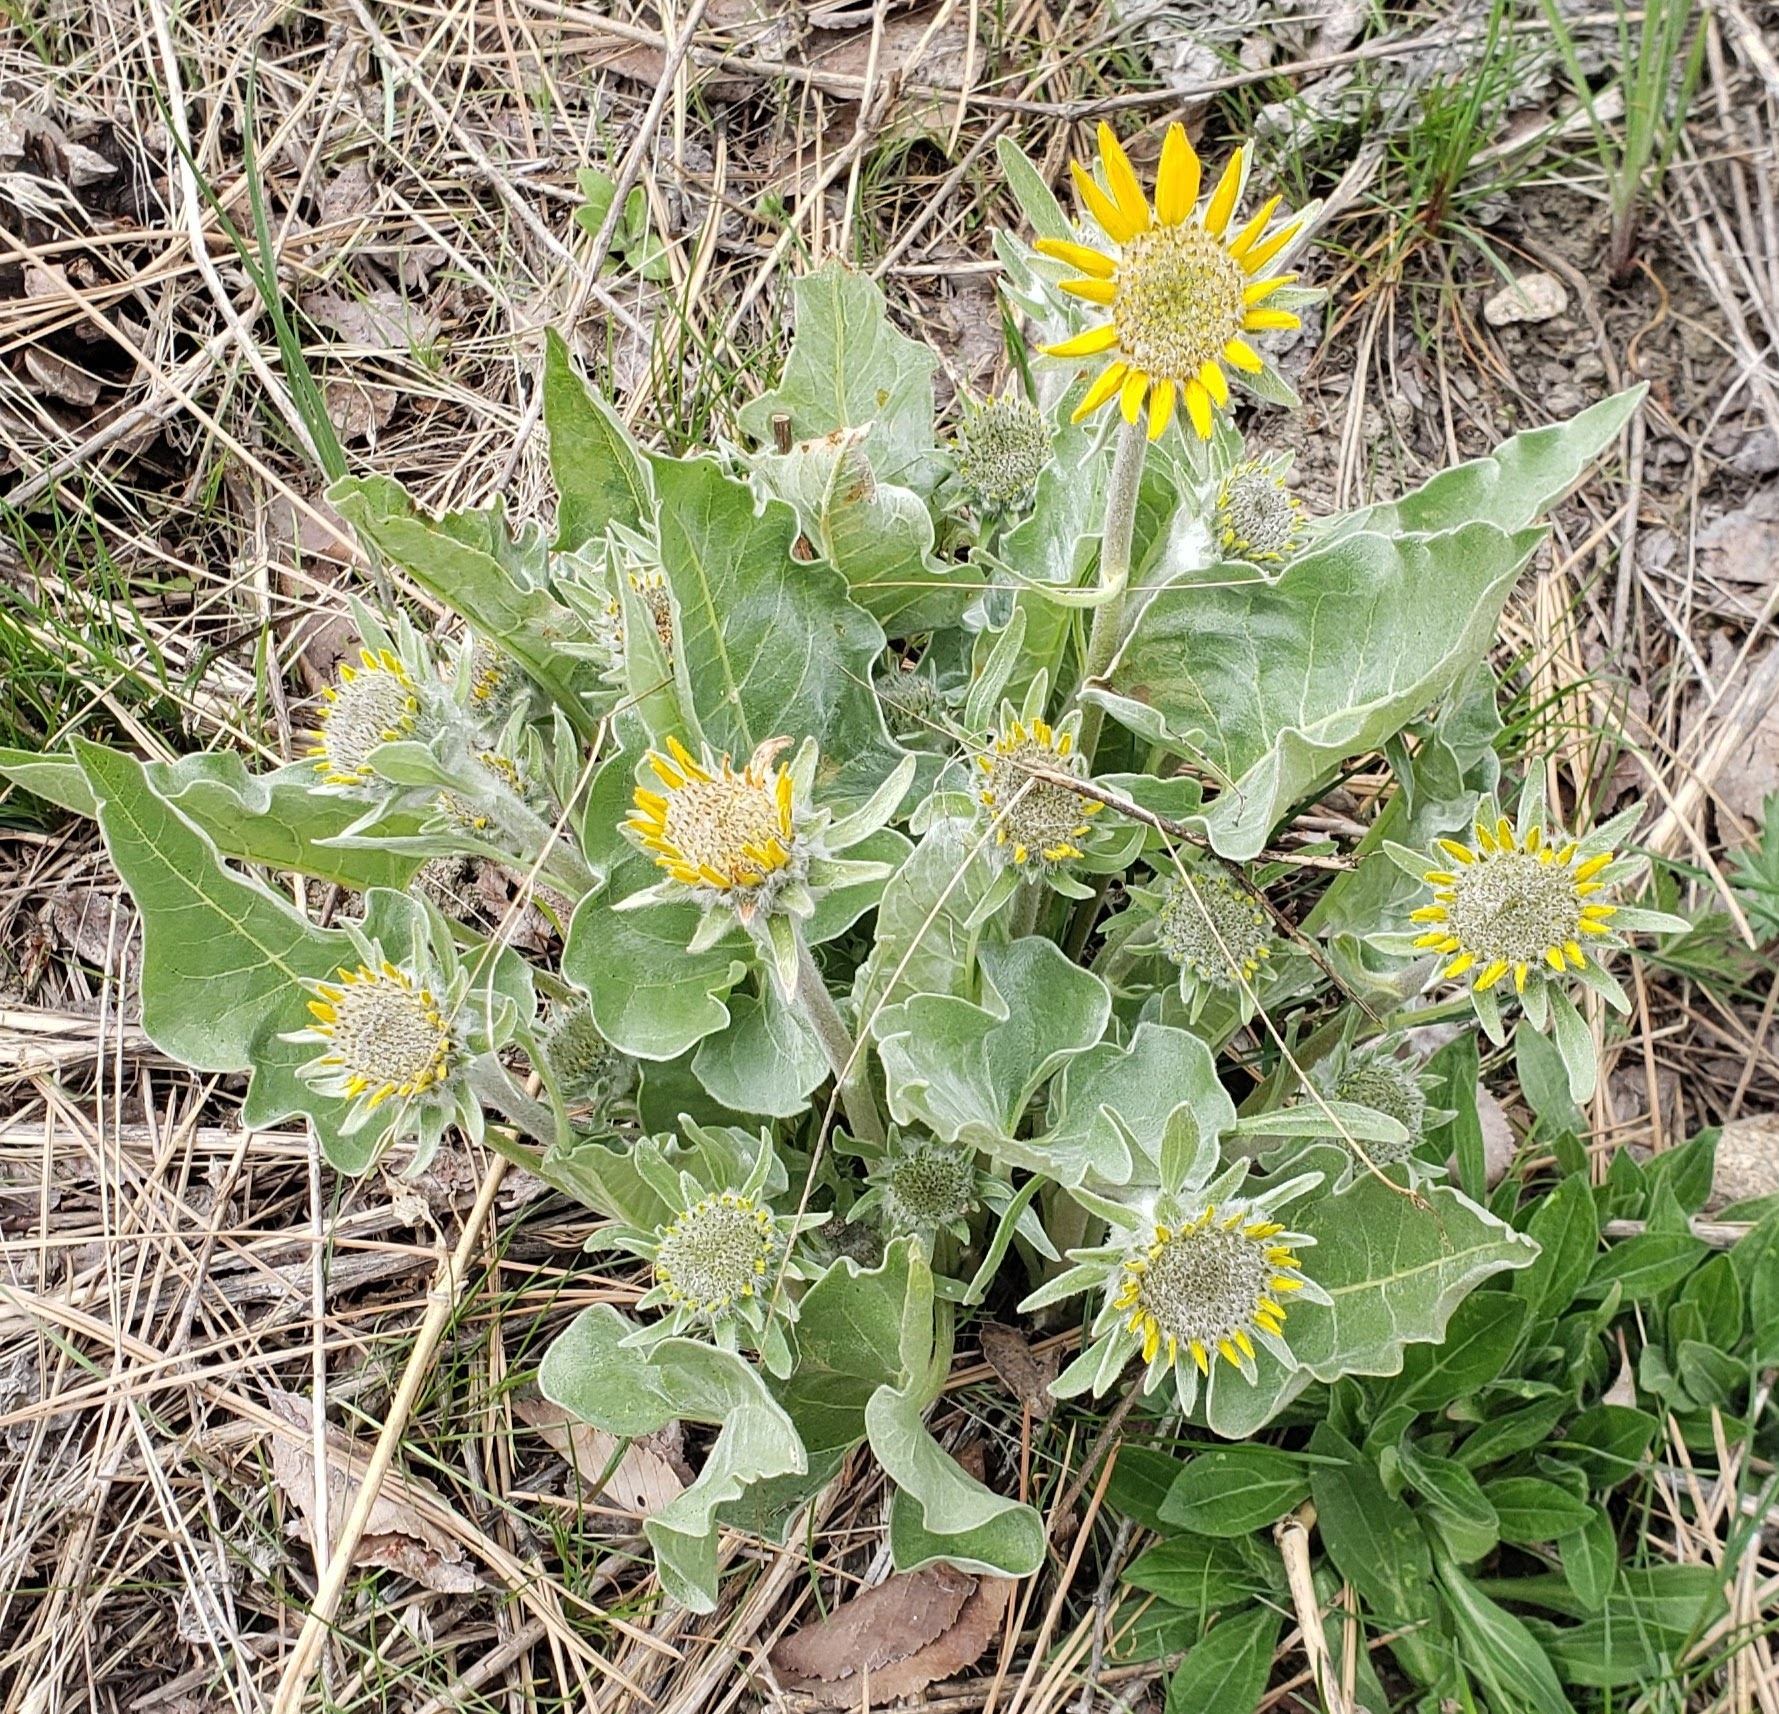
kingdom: Plantae
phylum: Tracheophyta
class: Magnoliopsida
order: Asterales
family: Asteraceae
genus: Wyethia
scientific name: Wyethia sagittata
